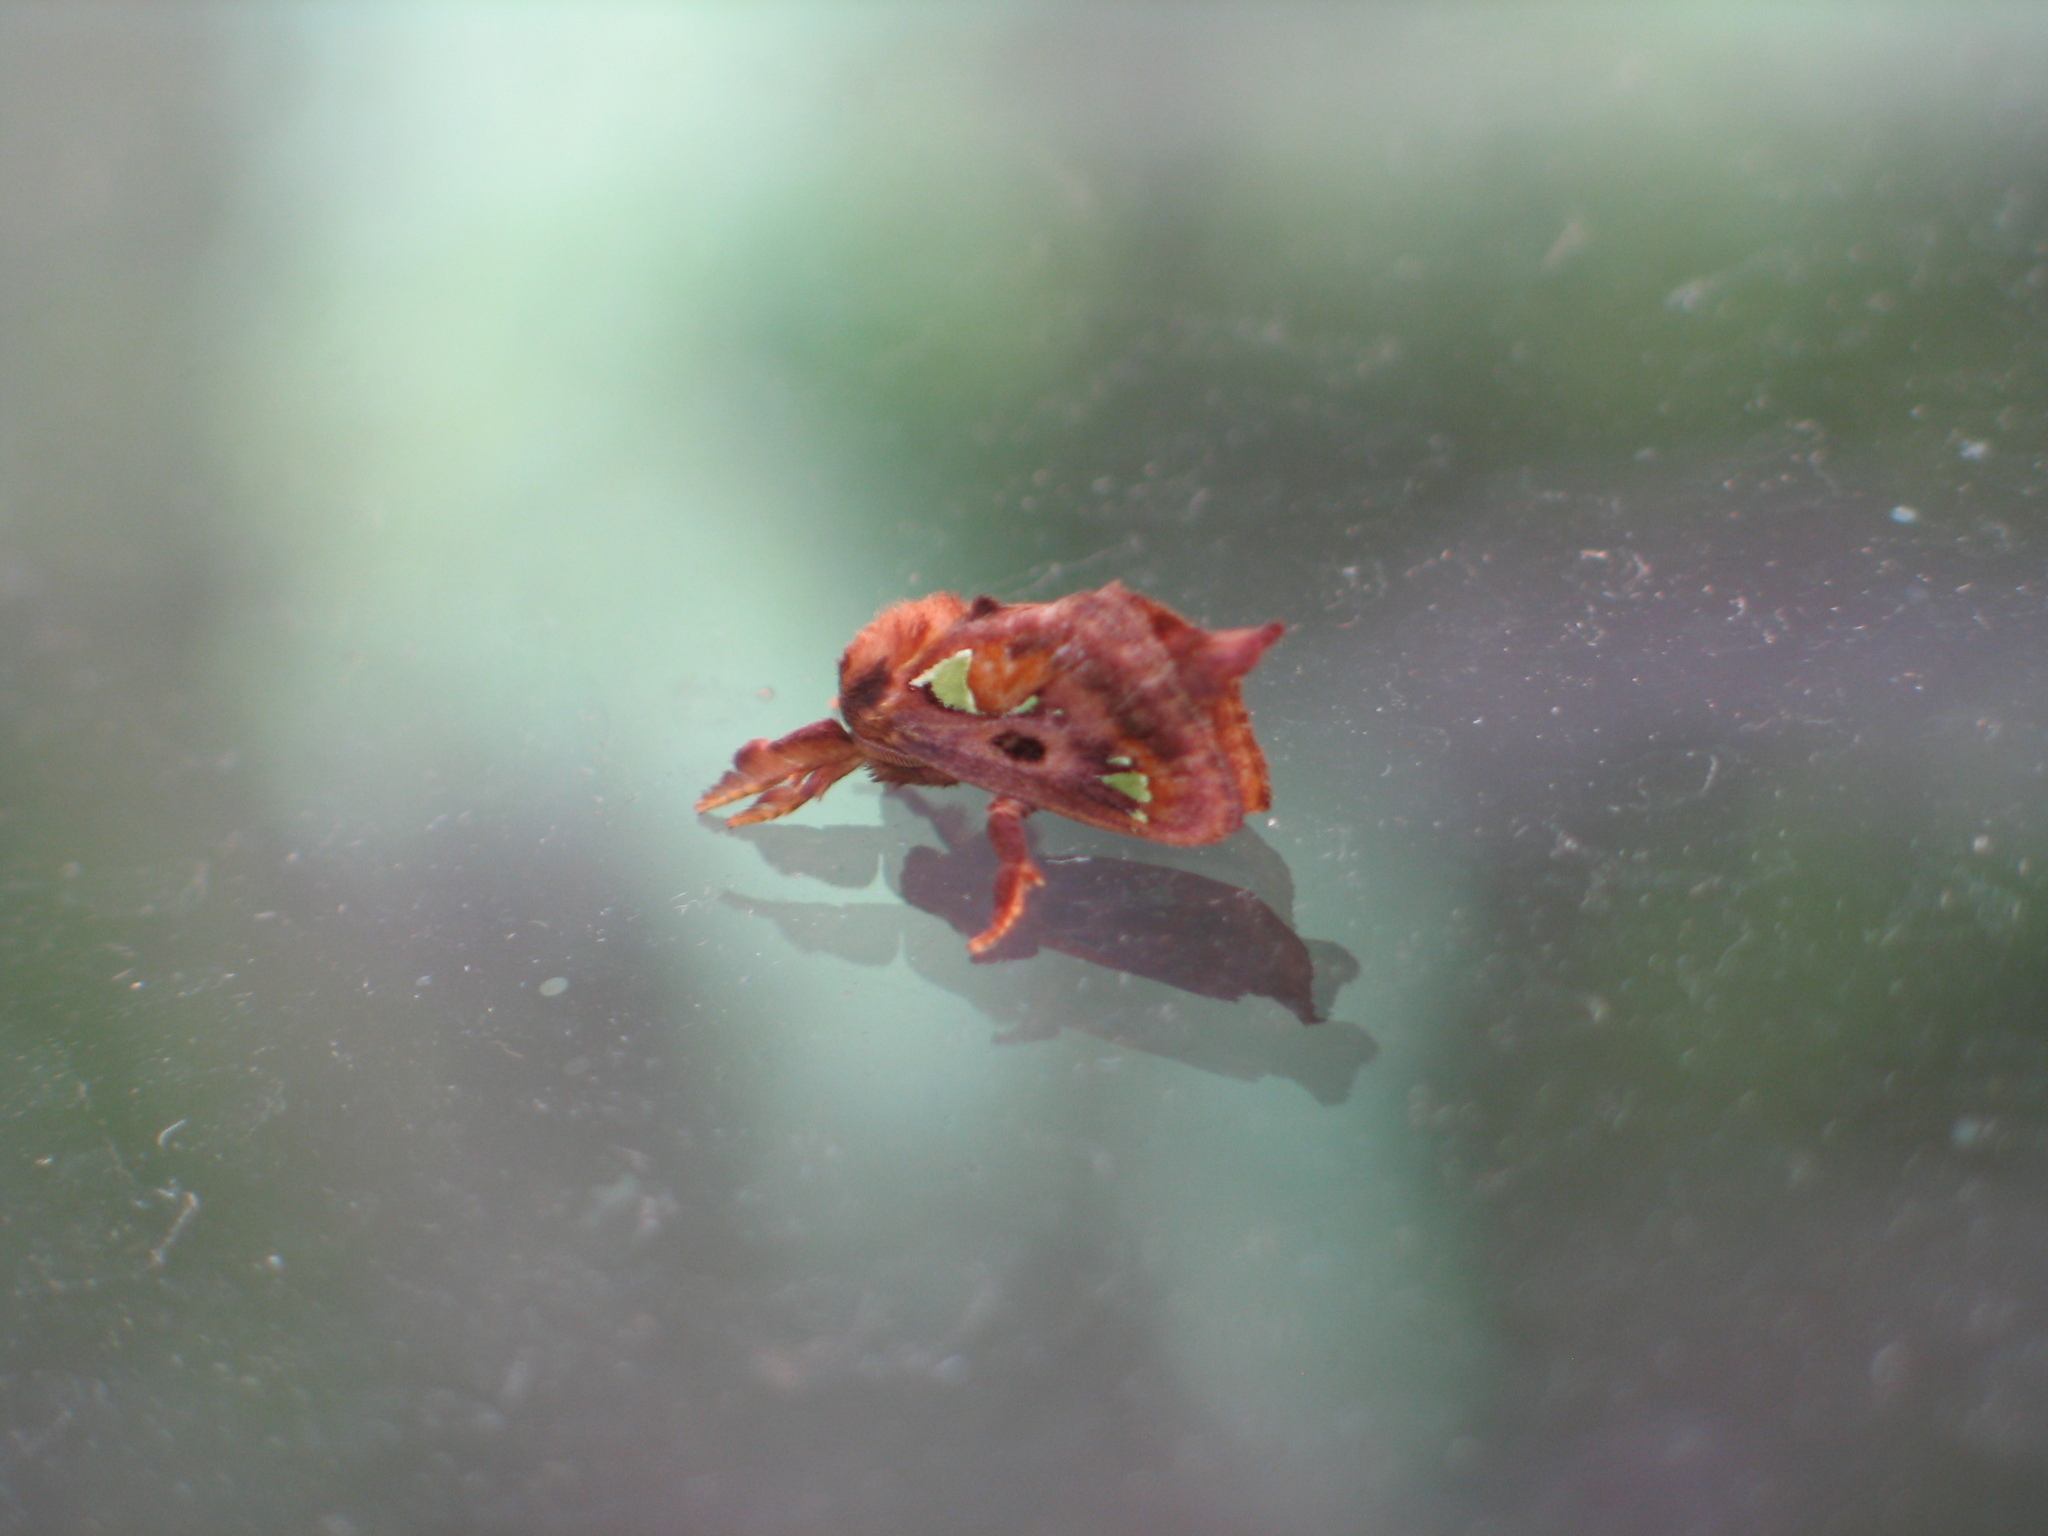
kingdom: Animalia
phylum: Arthropoda
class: Insecta
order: Lepidoptera
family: Limacodidae
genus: Euclea
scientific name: Euclea delphinii
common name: Spiny oak-slug moth
